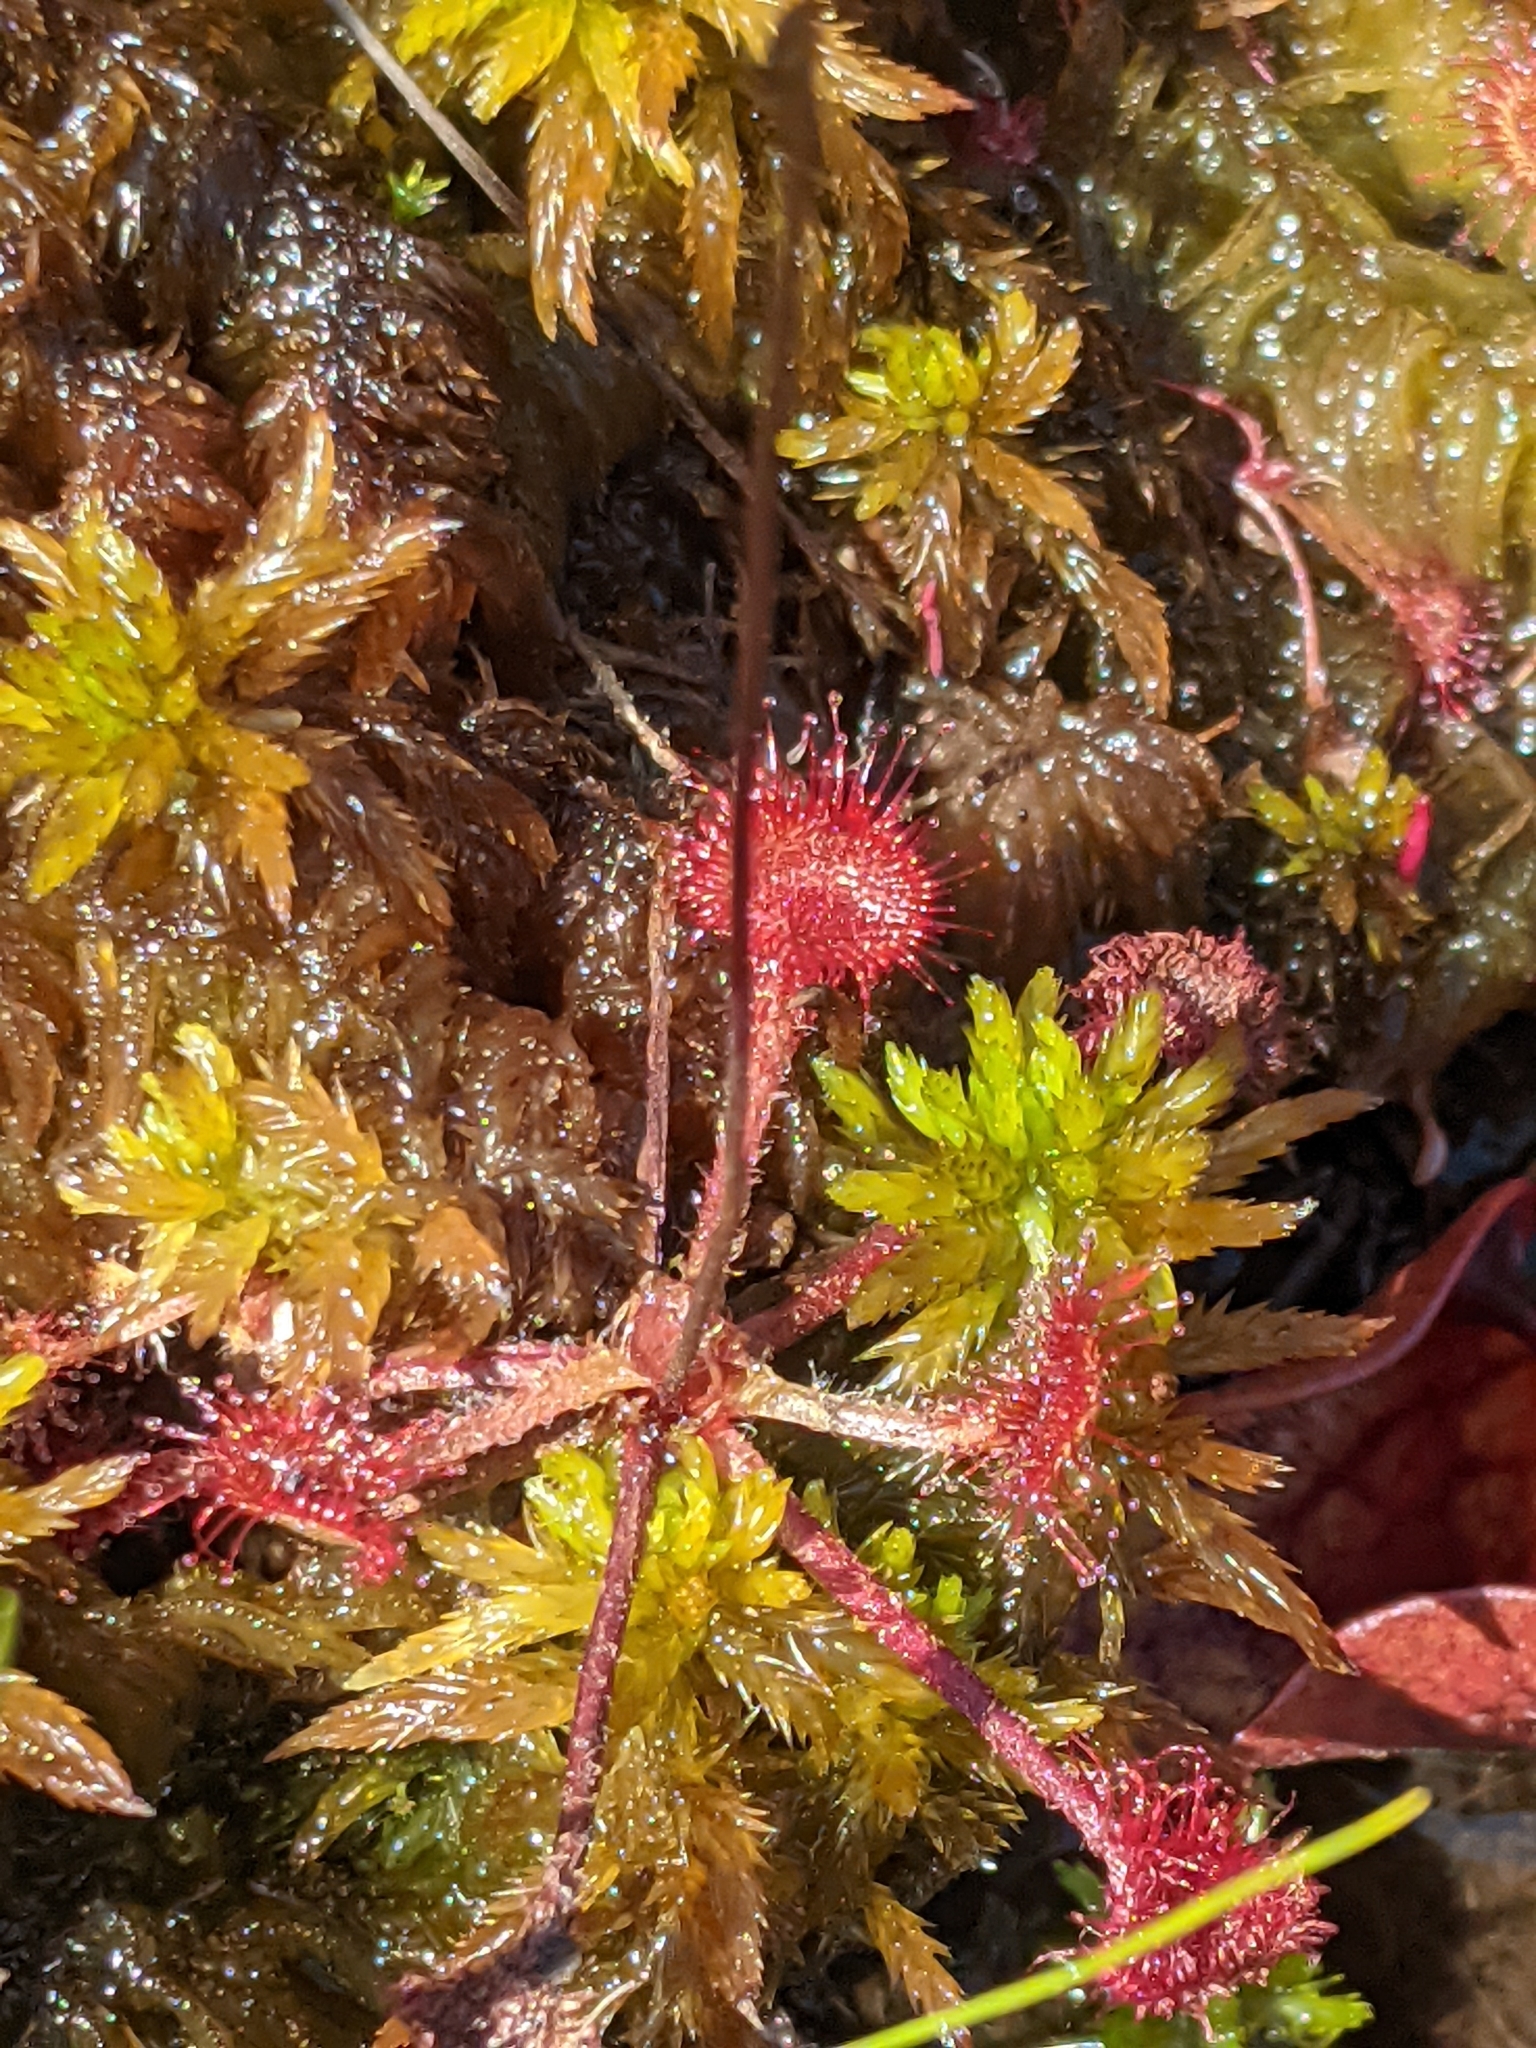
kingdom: Plantae
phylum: Tracheophyta
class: Magnoliopsida
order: Caryophyllales
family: Droseraceae
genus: Drosera
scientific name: Drosera rotundifolia
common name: Round-leaved sundew
